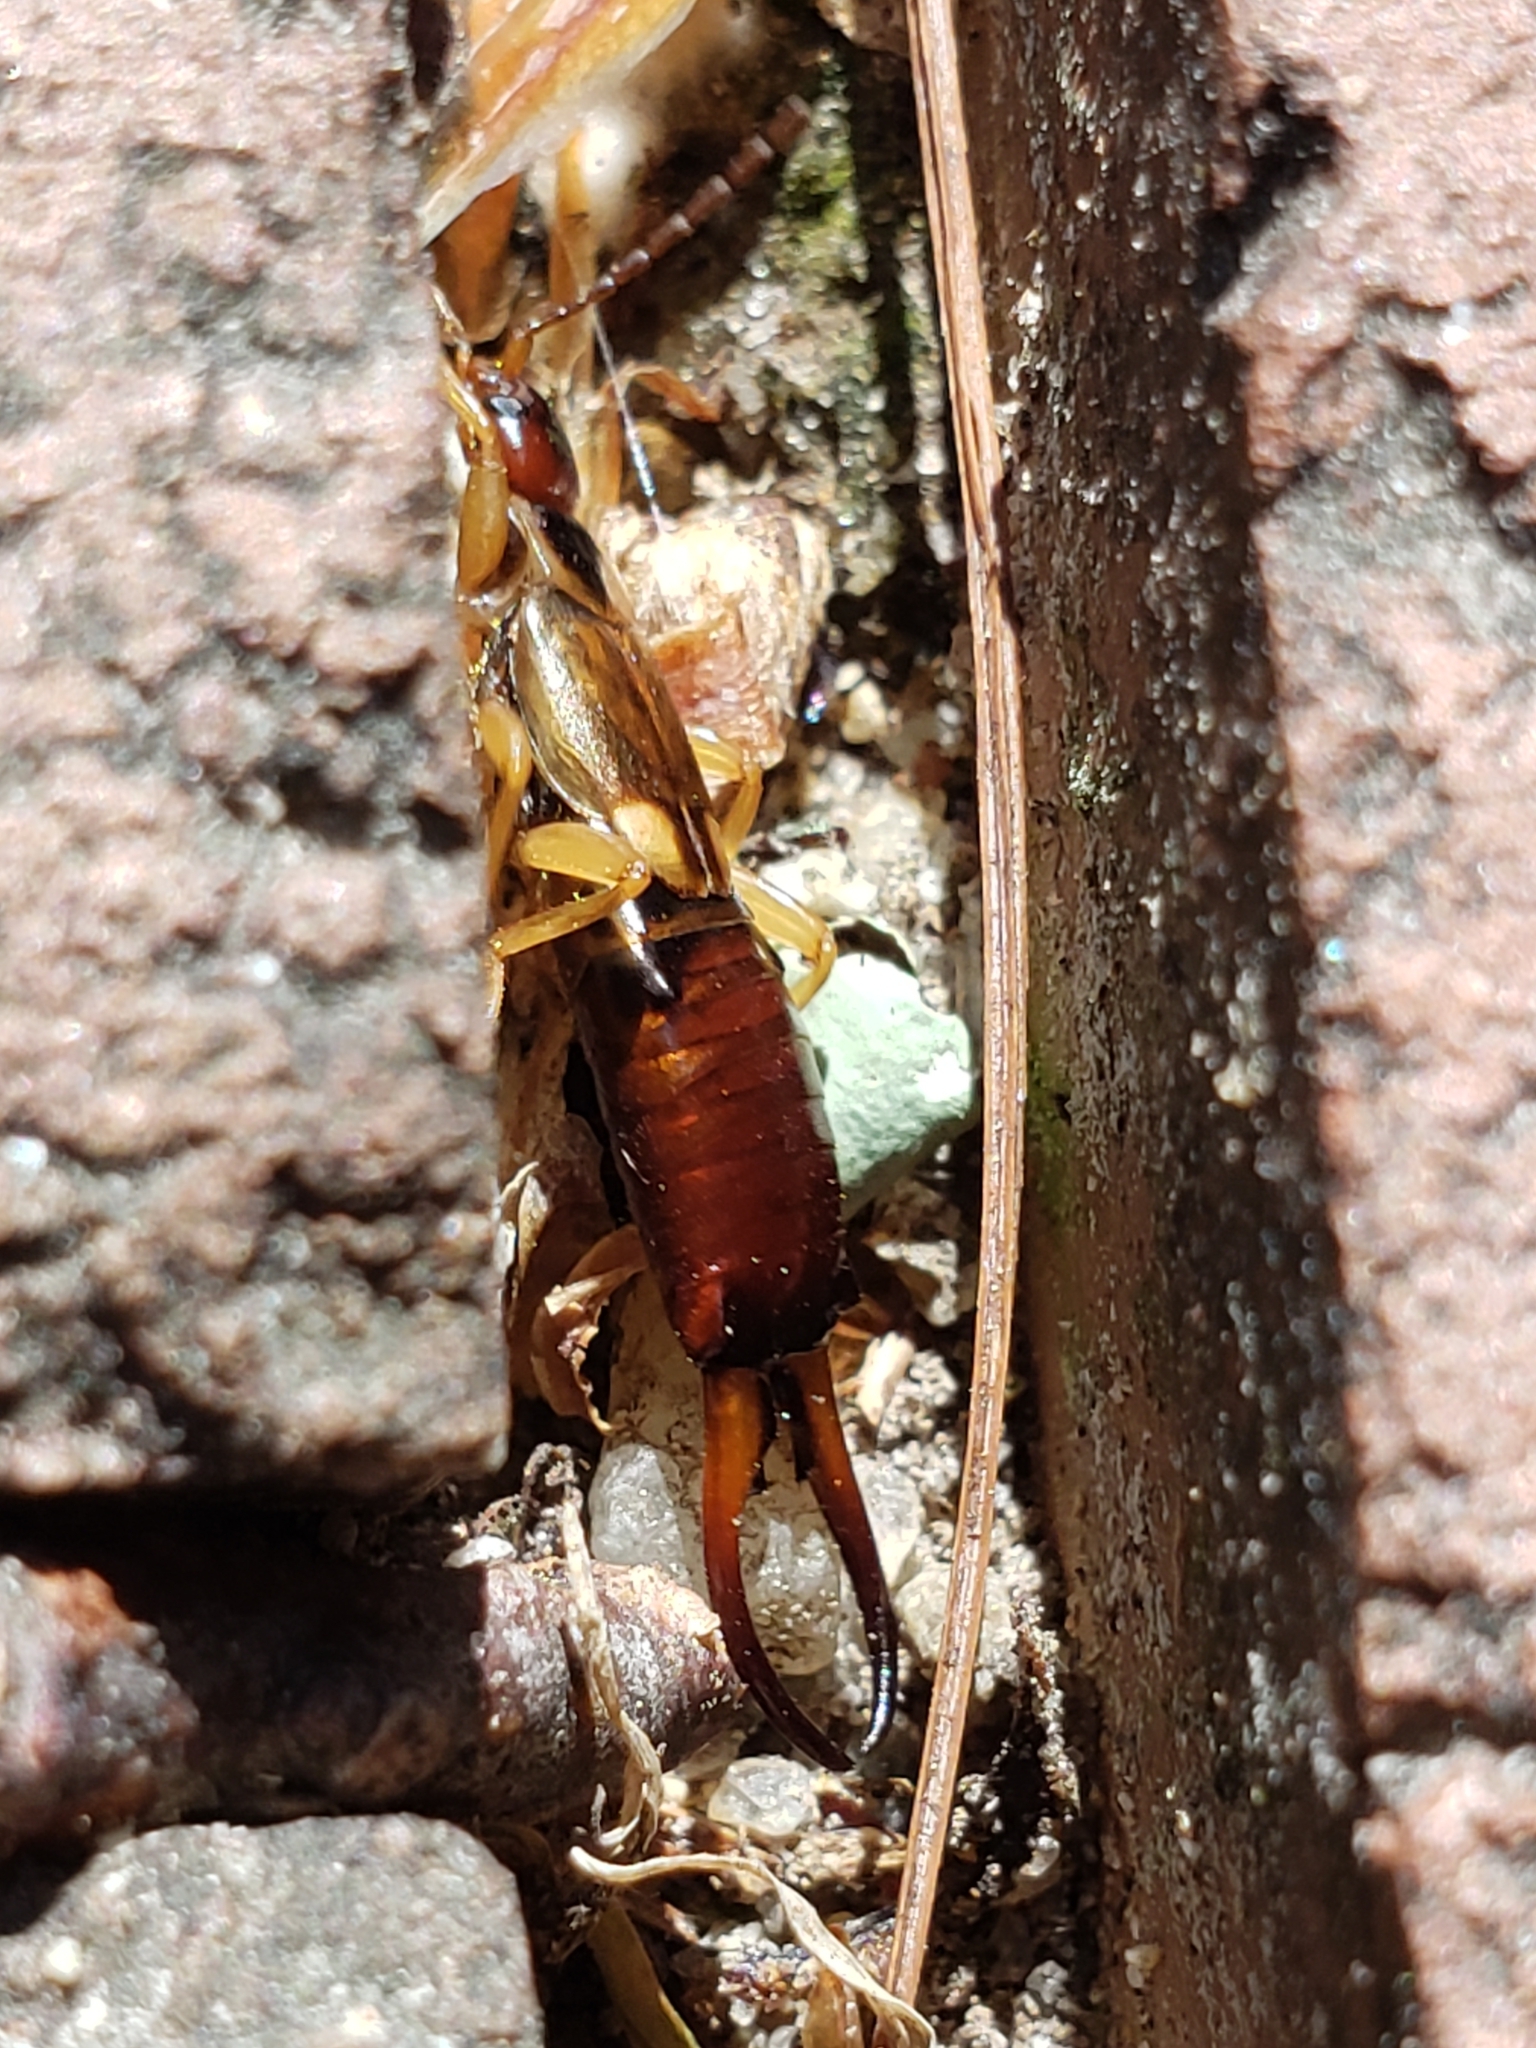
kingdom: Animalia
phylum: Arthropoda
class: Insecta
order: Dermaptera
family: Forficulidae
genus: Forficula
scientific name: Forficula
